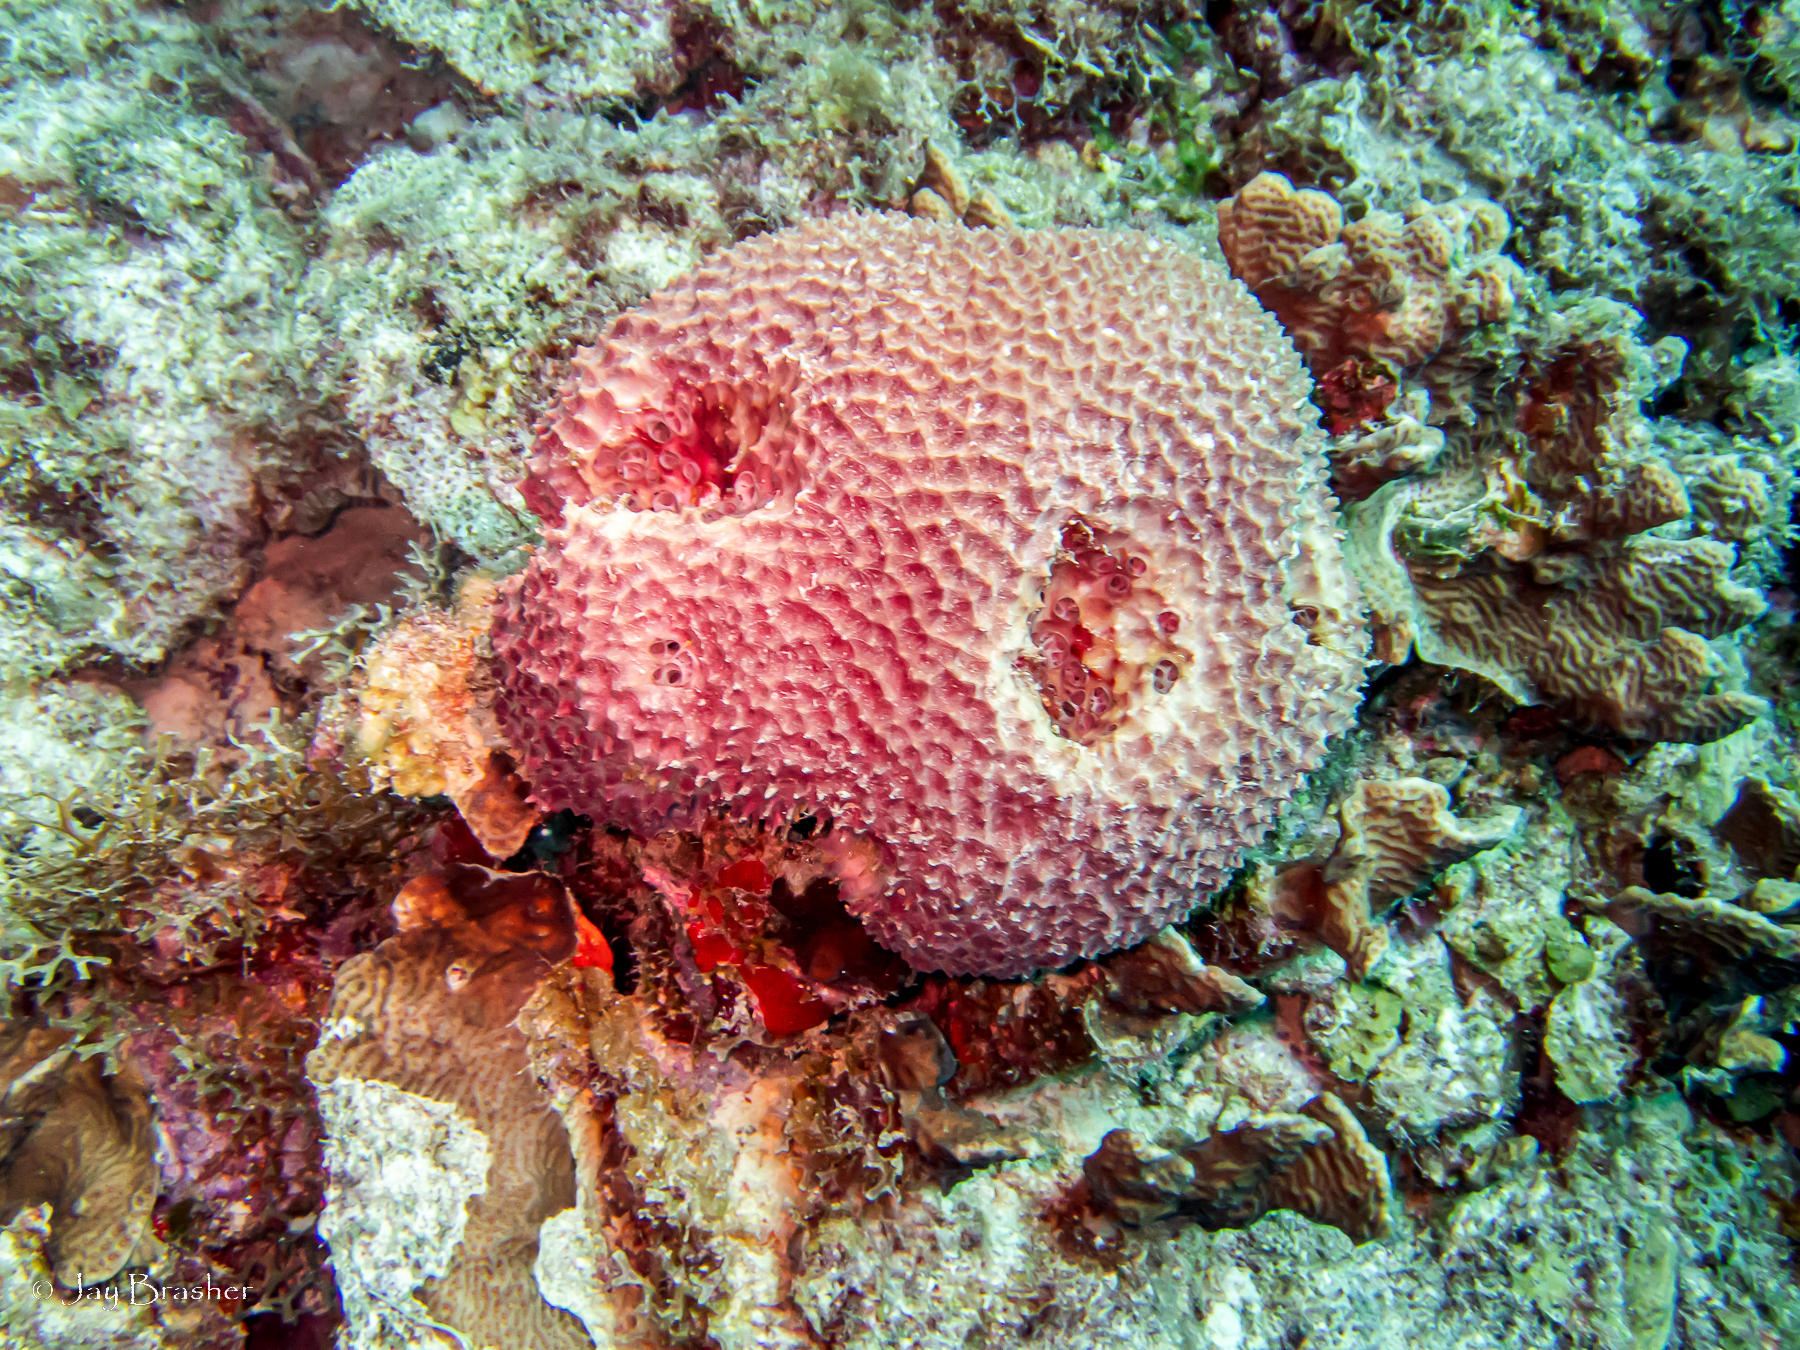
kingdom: Animalia
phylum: Cnidaria
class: Anthozoa
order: Scleractinia
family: Agariciidae
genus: Agaricia
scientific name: Agaricia agaricites
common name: Lettuce coral
